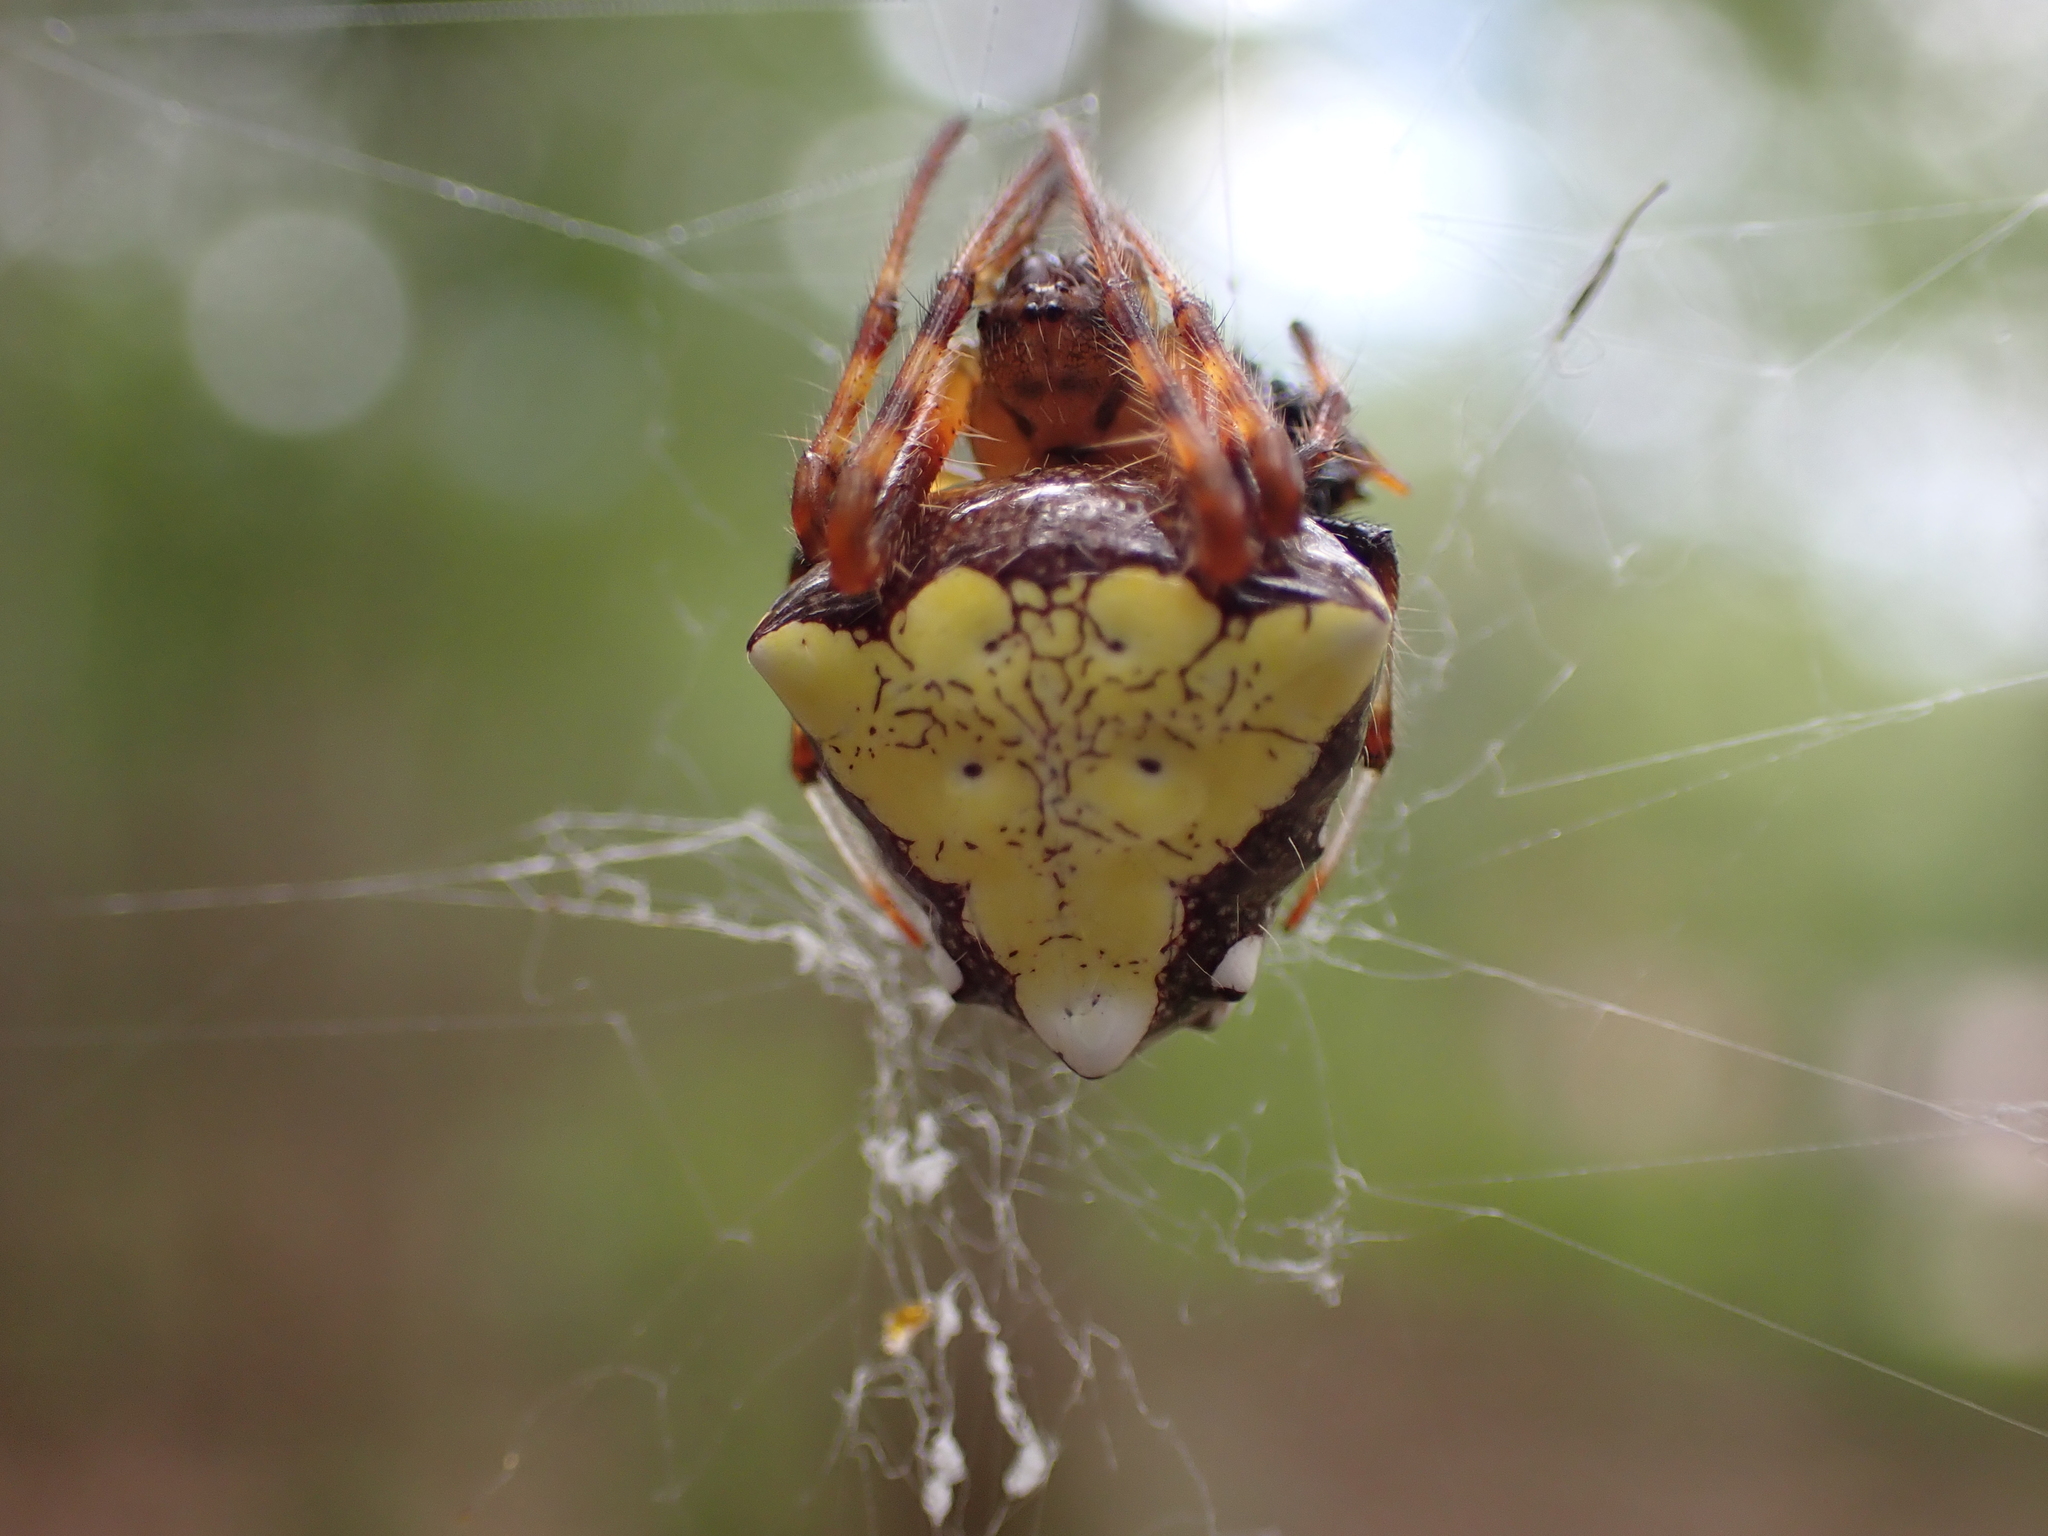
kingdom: Animalia
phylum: Arthropoda
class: Arachnida
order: Araneae
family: Araneidae
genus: Verrucosa
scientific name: Verrucosa arenata
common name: Orb weavers
